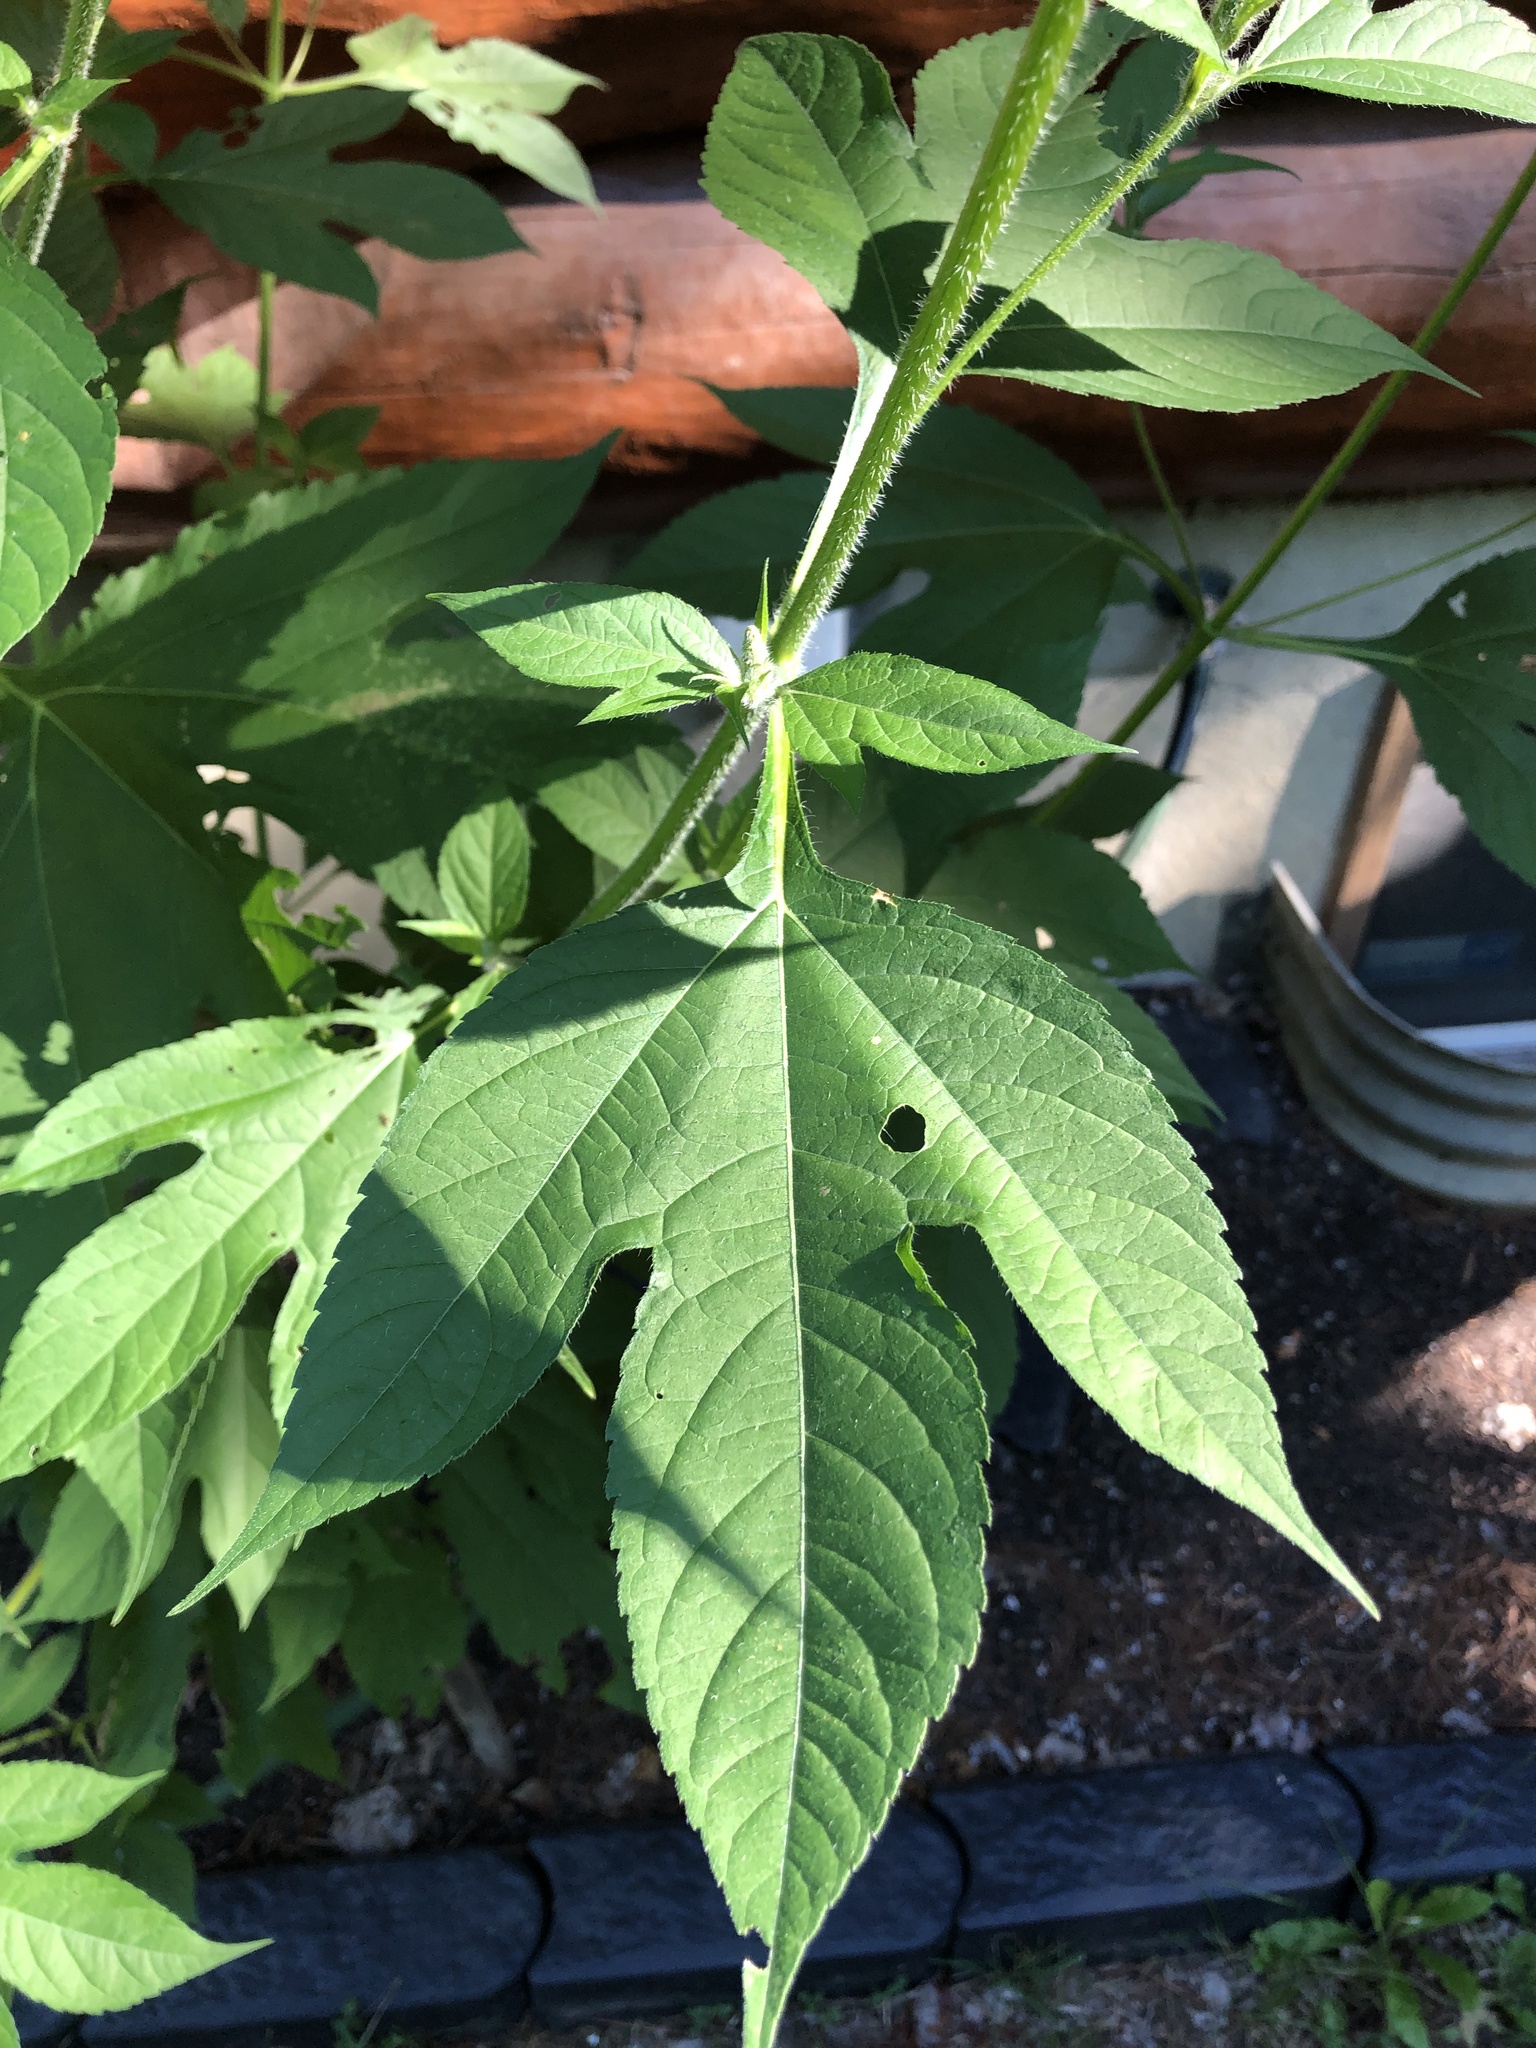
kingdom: Plantae
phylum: Tracheophyta
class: Magnoliopsida
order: Asterales
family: Asteraceae
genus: Ambrosia
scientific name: Ambrosia trifida
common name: Giant ragweed
